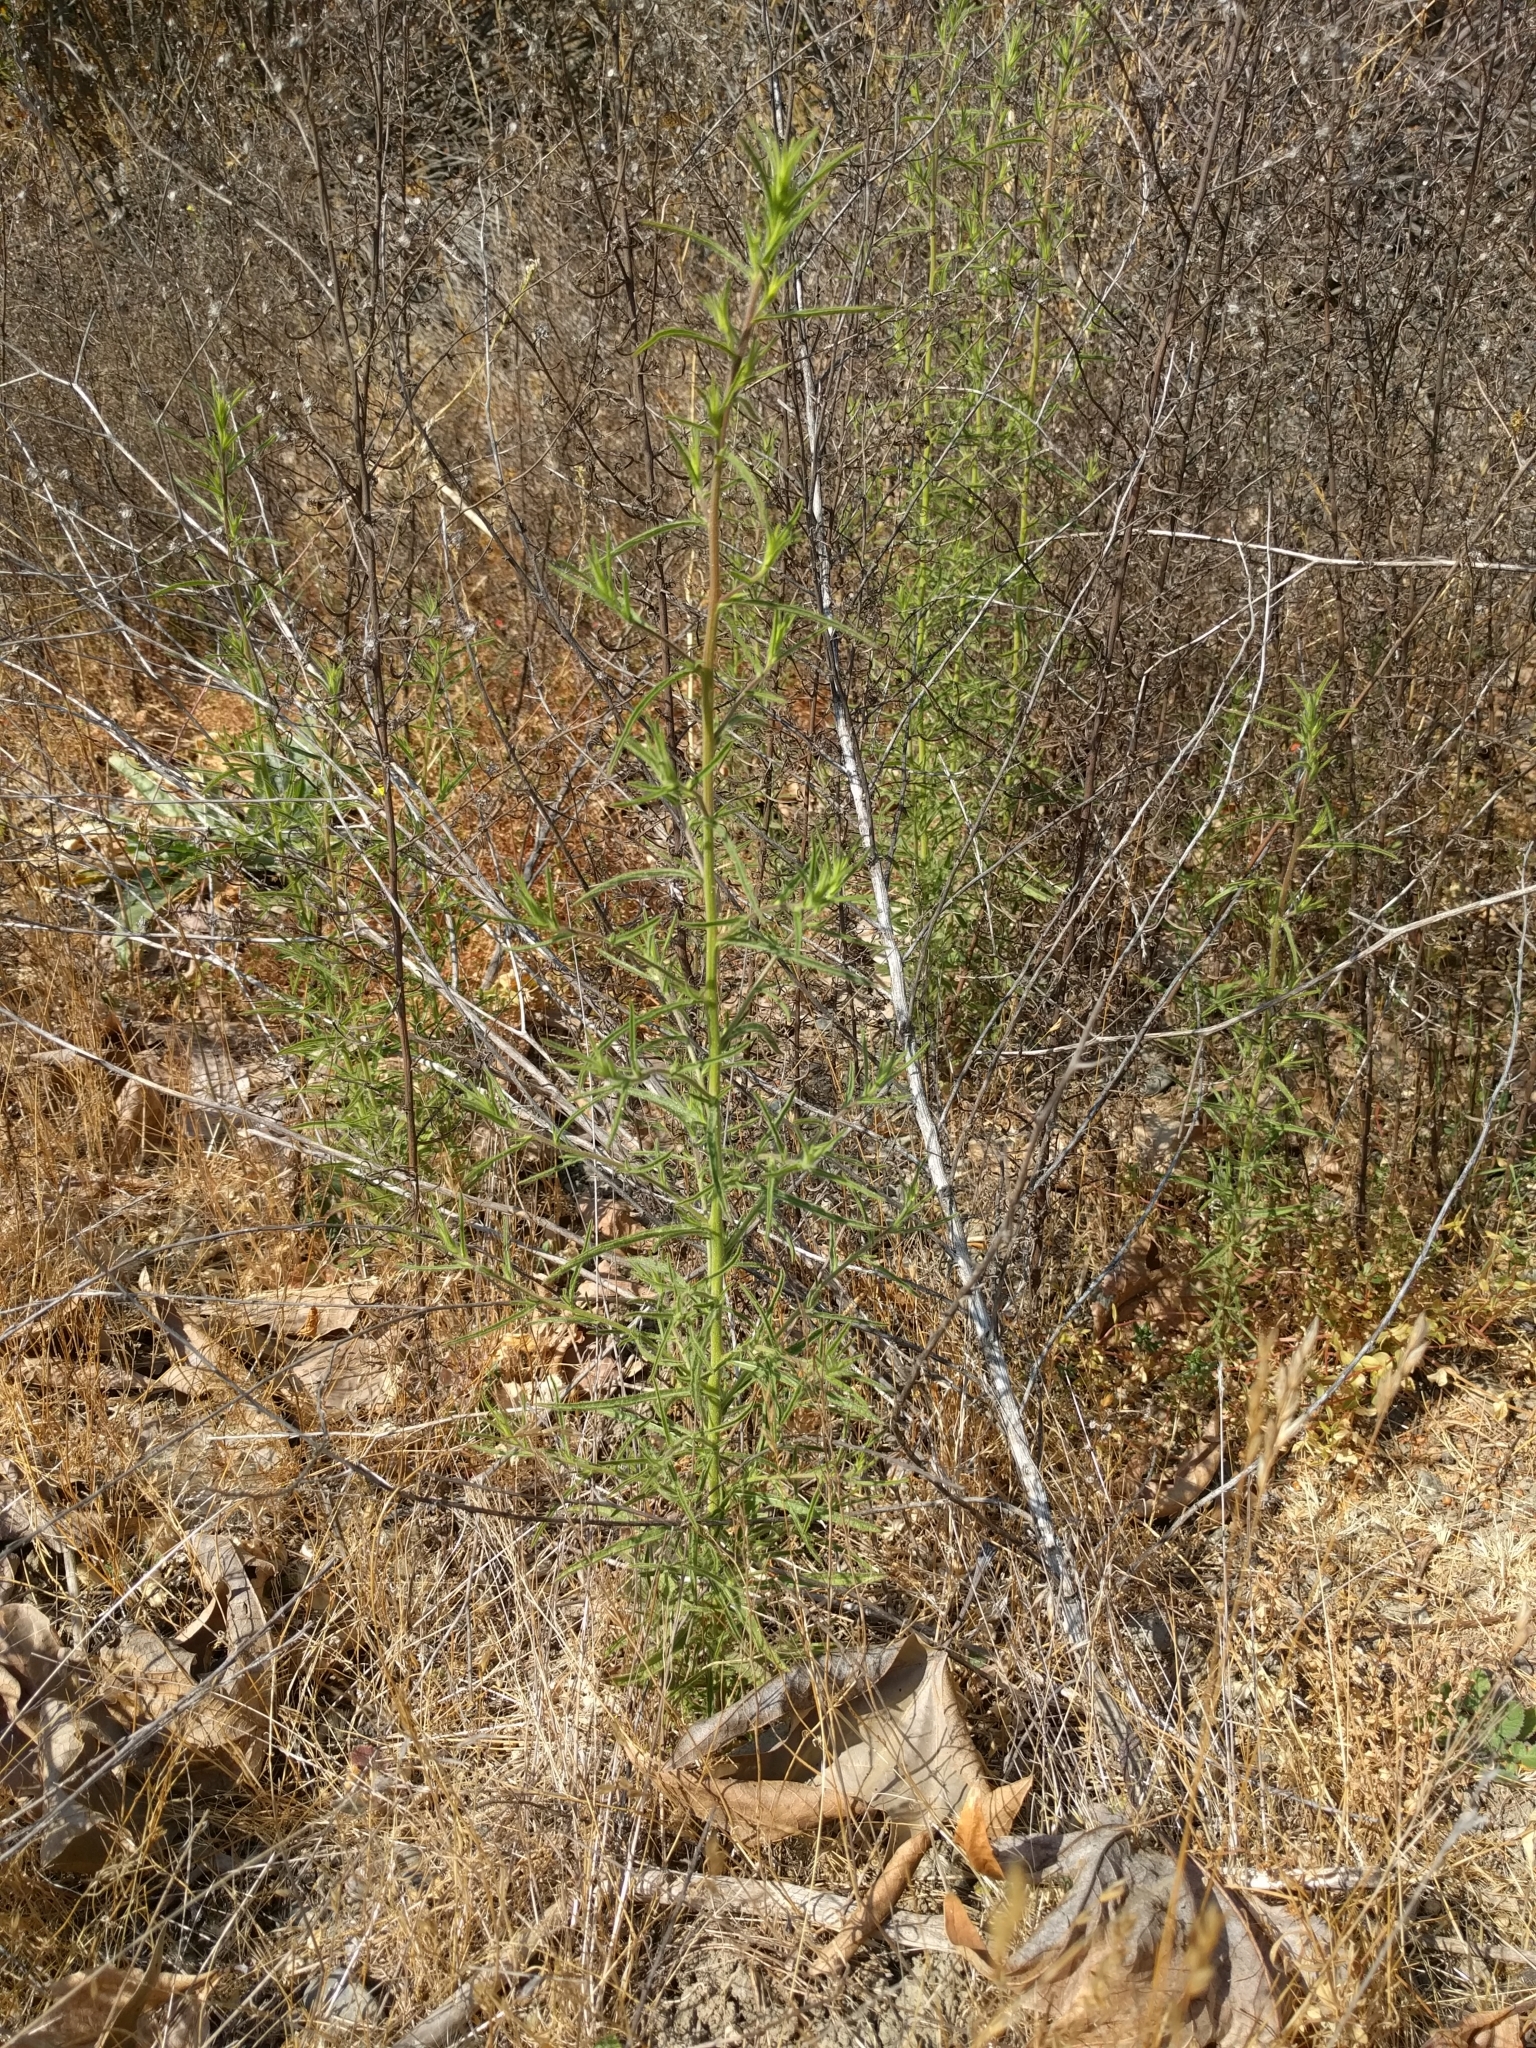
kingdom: Plantae
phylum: Tracheophyta
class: Magnoliopsida
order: Asterales
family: Asteraceae
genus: Dittrichia
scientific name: Dittrichia graveolens
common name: Stinking fleabane
